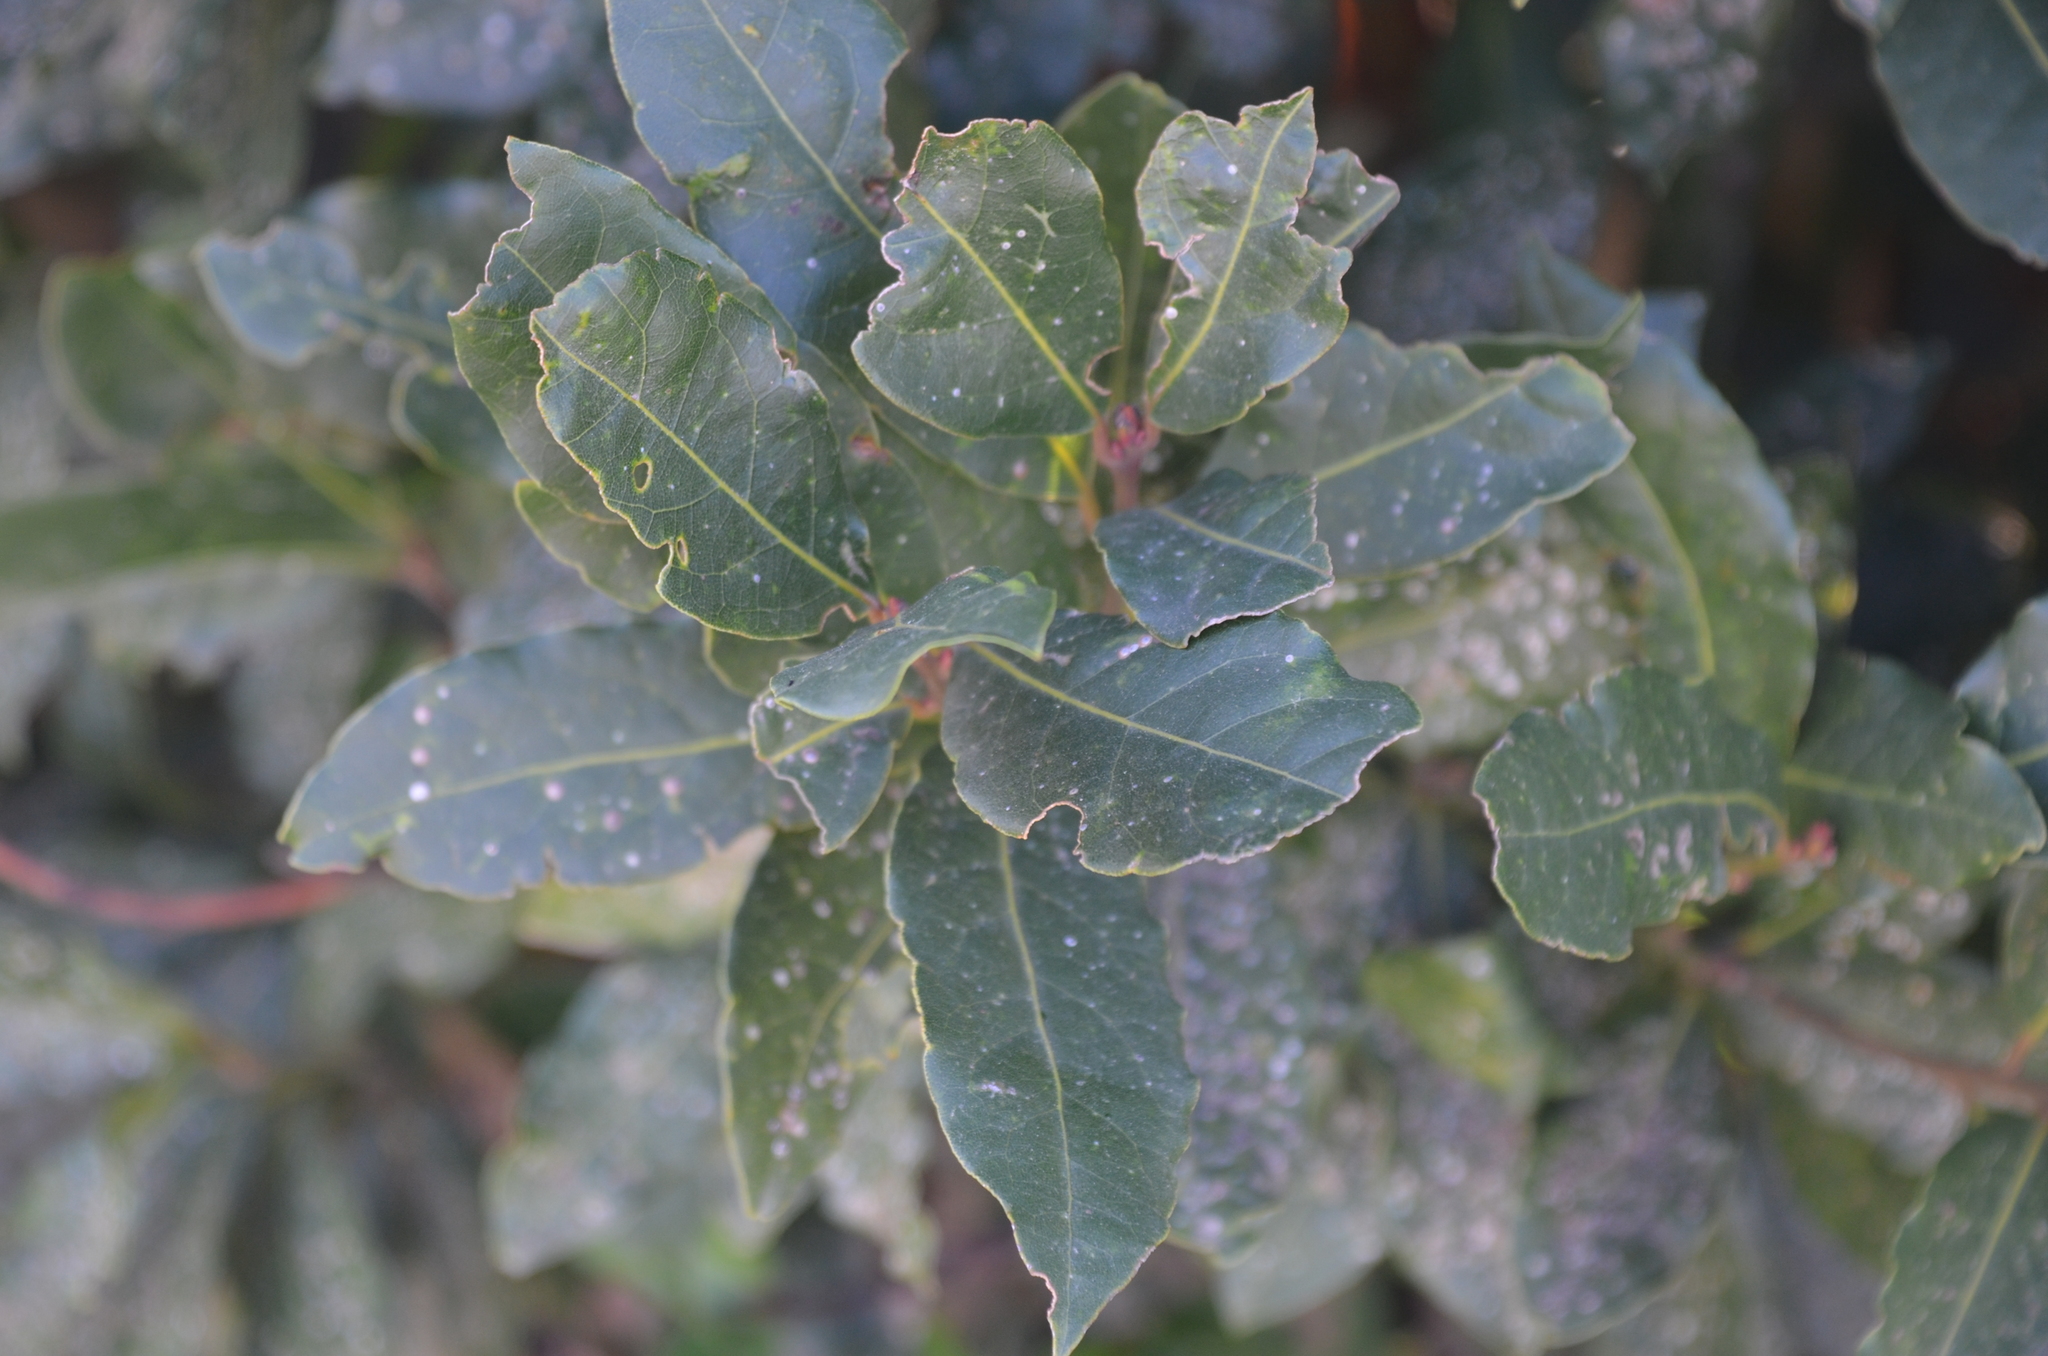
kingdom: Plantae
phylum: Tracheophyta
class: Magnoliopsida
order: Laurales
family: Lauraceae
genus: Laurus
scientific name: Laurus nobilis
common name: Bay
